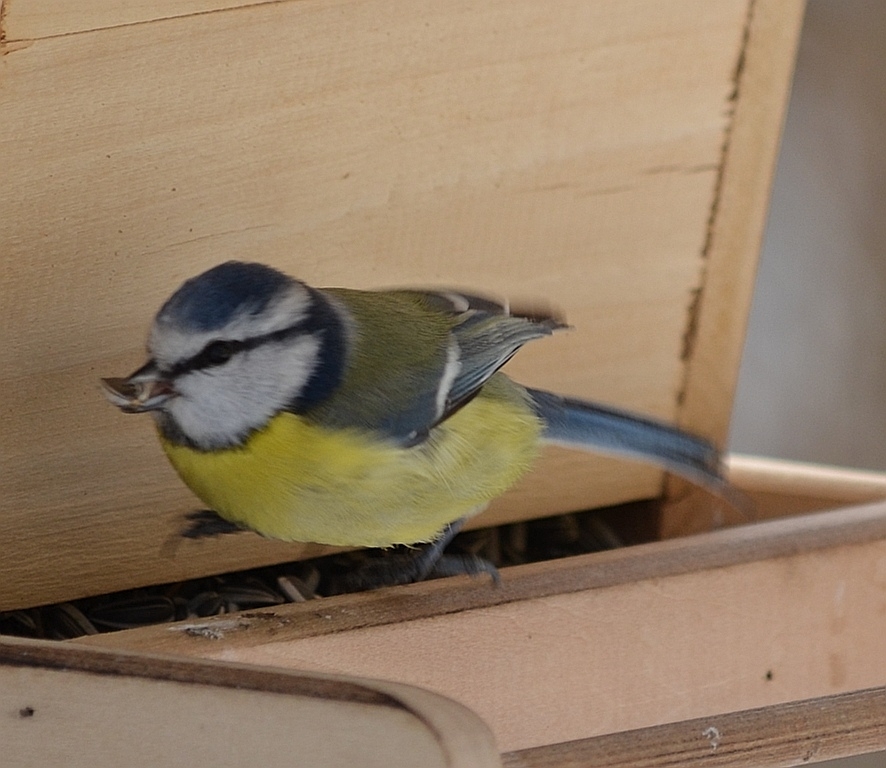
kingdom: Animalia
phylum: Chordata
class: Aves
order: Passeriformes
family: Paridae
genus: Cyanistes
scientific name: Cyanistes caeruleus
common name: Eurasian blue tit
